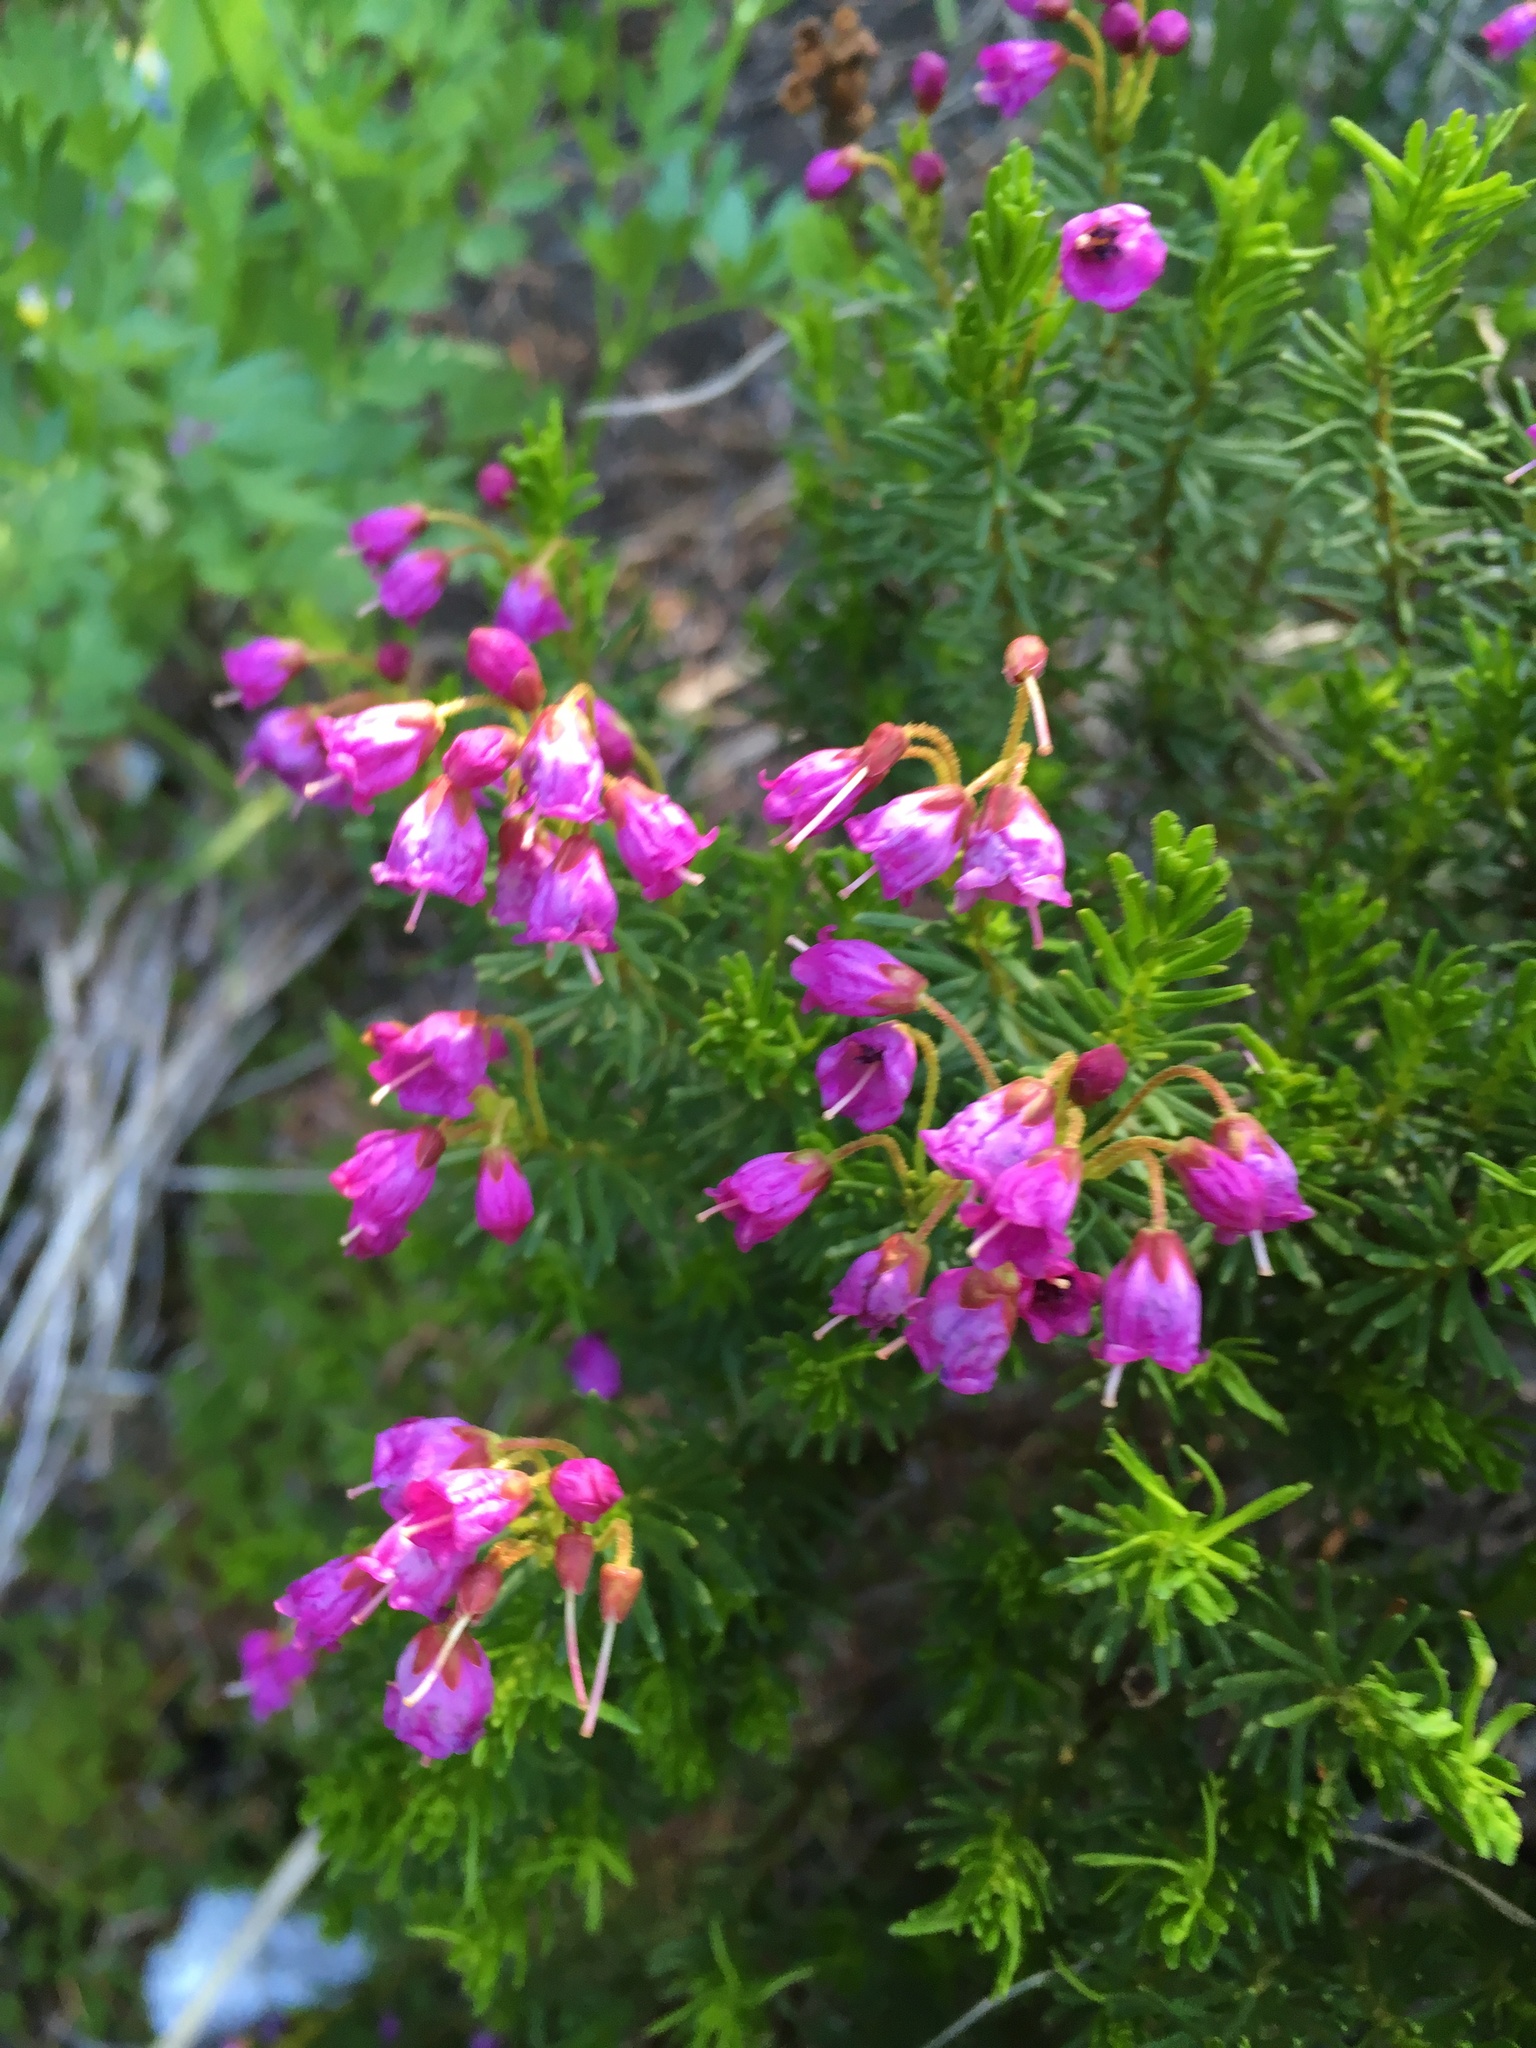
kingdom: Plantae
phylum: Tracheophyta
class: Magnoliopsida
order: Ericales
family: Ericaceae
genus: Phyllodoce
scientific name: Phyllodoce empetriformis
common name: Pink mountain heather
